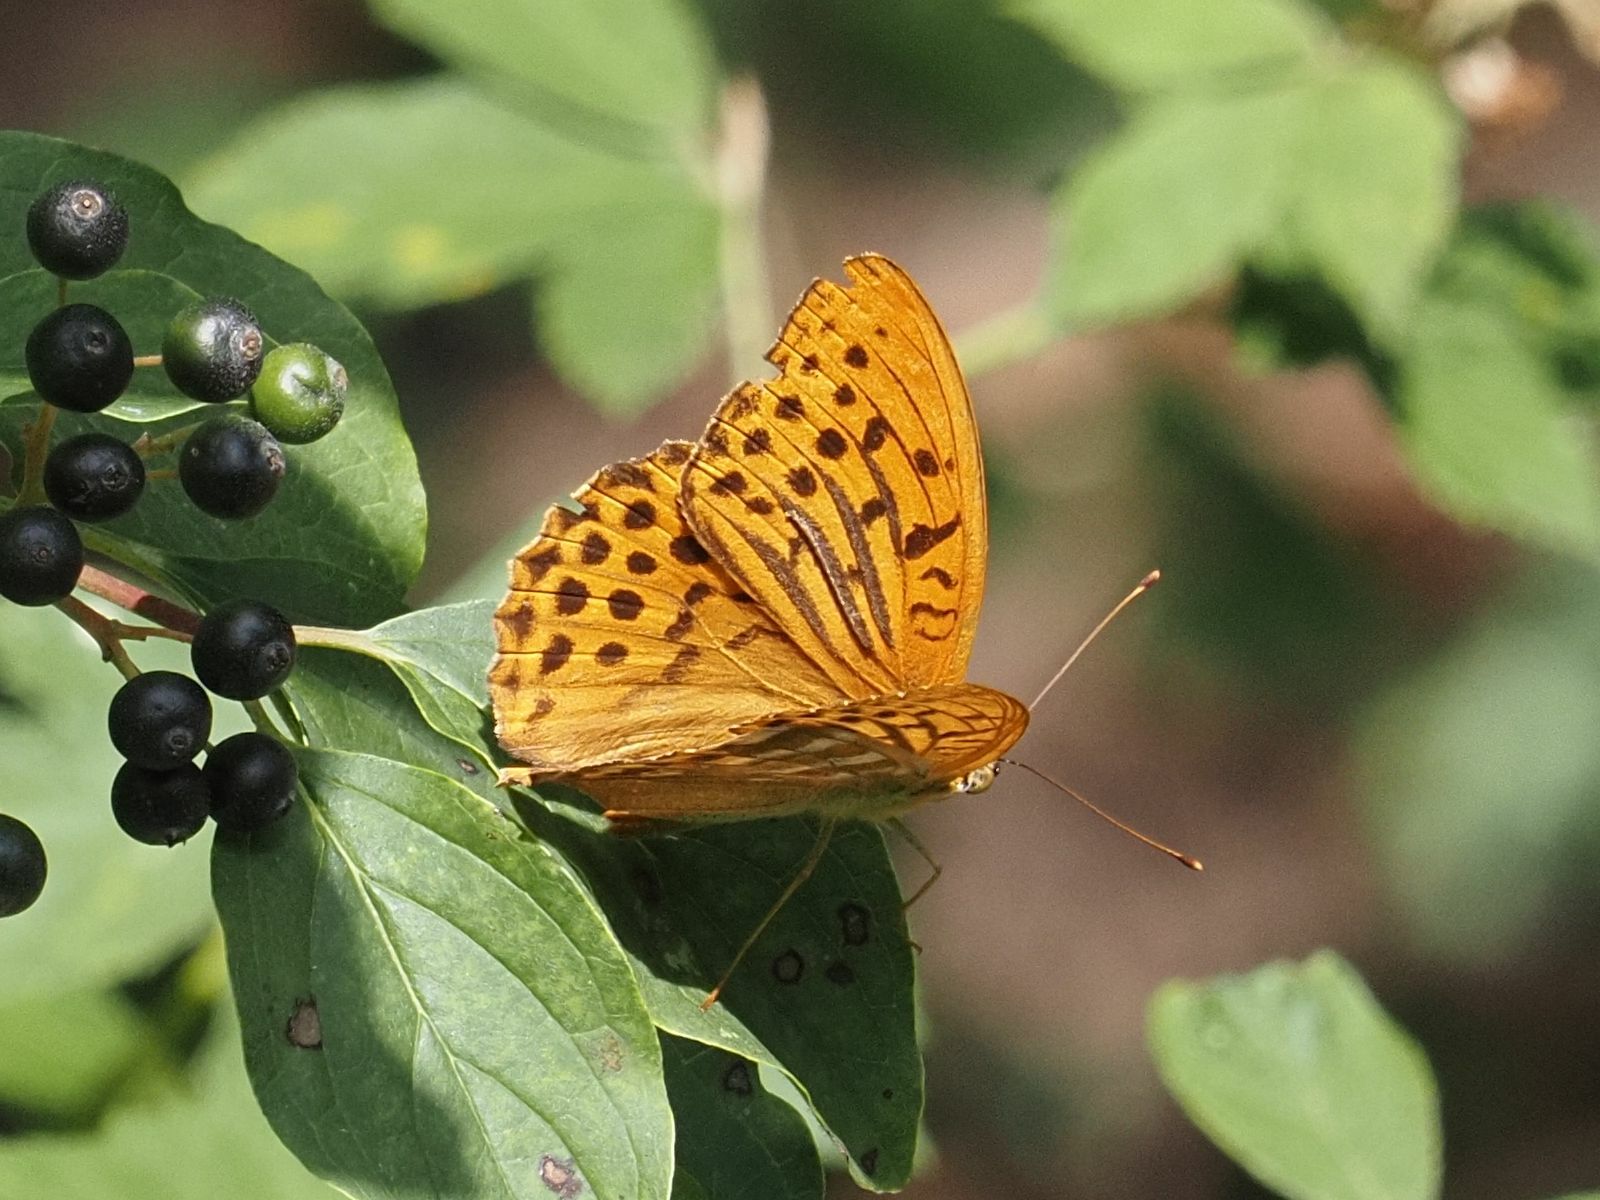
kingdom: Animalia
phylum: Arthropoda
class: Insecta
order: Lepidoptera
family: Nymphalidae
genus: Argynnis
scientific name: Argynnis paphia
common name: Silver-washed fritillary
